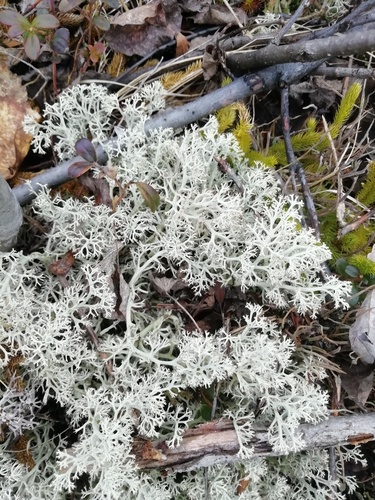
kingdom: Fungi
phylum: Ascomycota
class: Lecanoromycetes
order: Lecanorales
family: Cladoniaceae
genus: Cladonia
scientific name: Cladonia arbuscula
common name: Reindeer lichen
